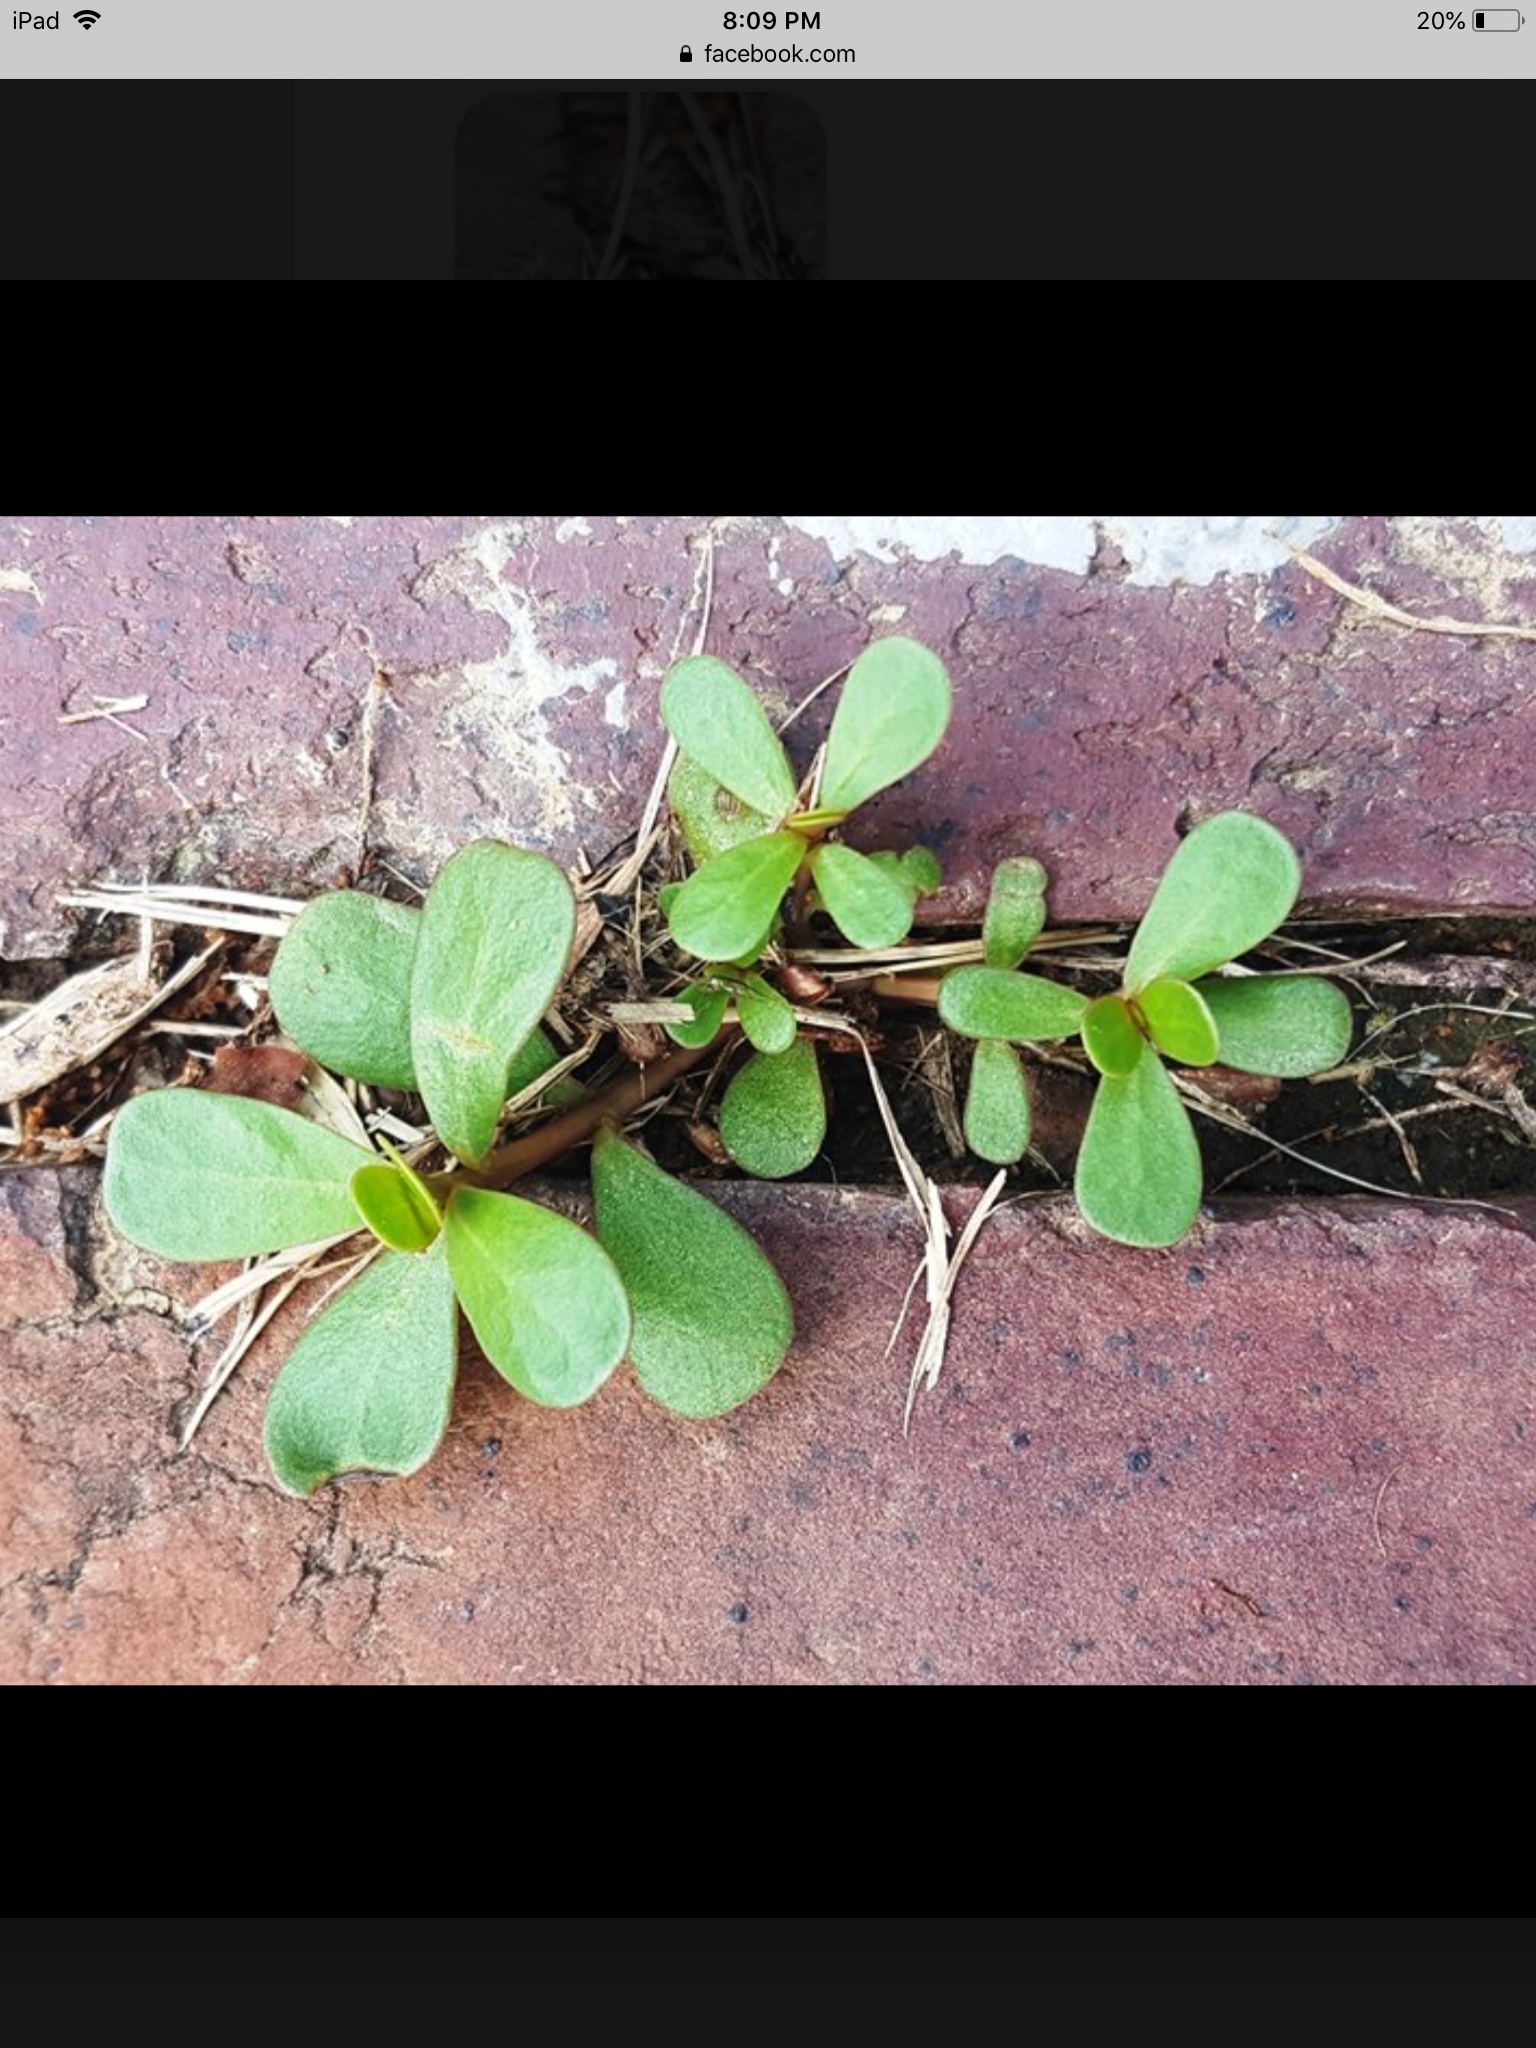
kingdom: Plantae
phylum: Tracheophyta
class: Magnoliopsida
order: Caryophyllales
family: Portulacaceae
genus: Portulaca
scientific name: Portulaca oleracea
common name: Common purslane
